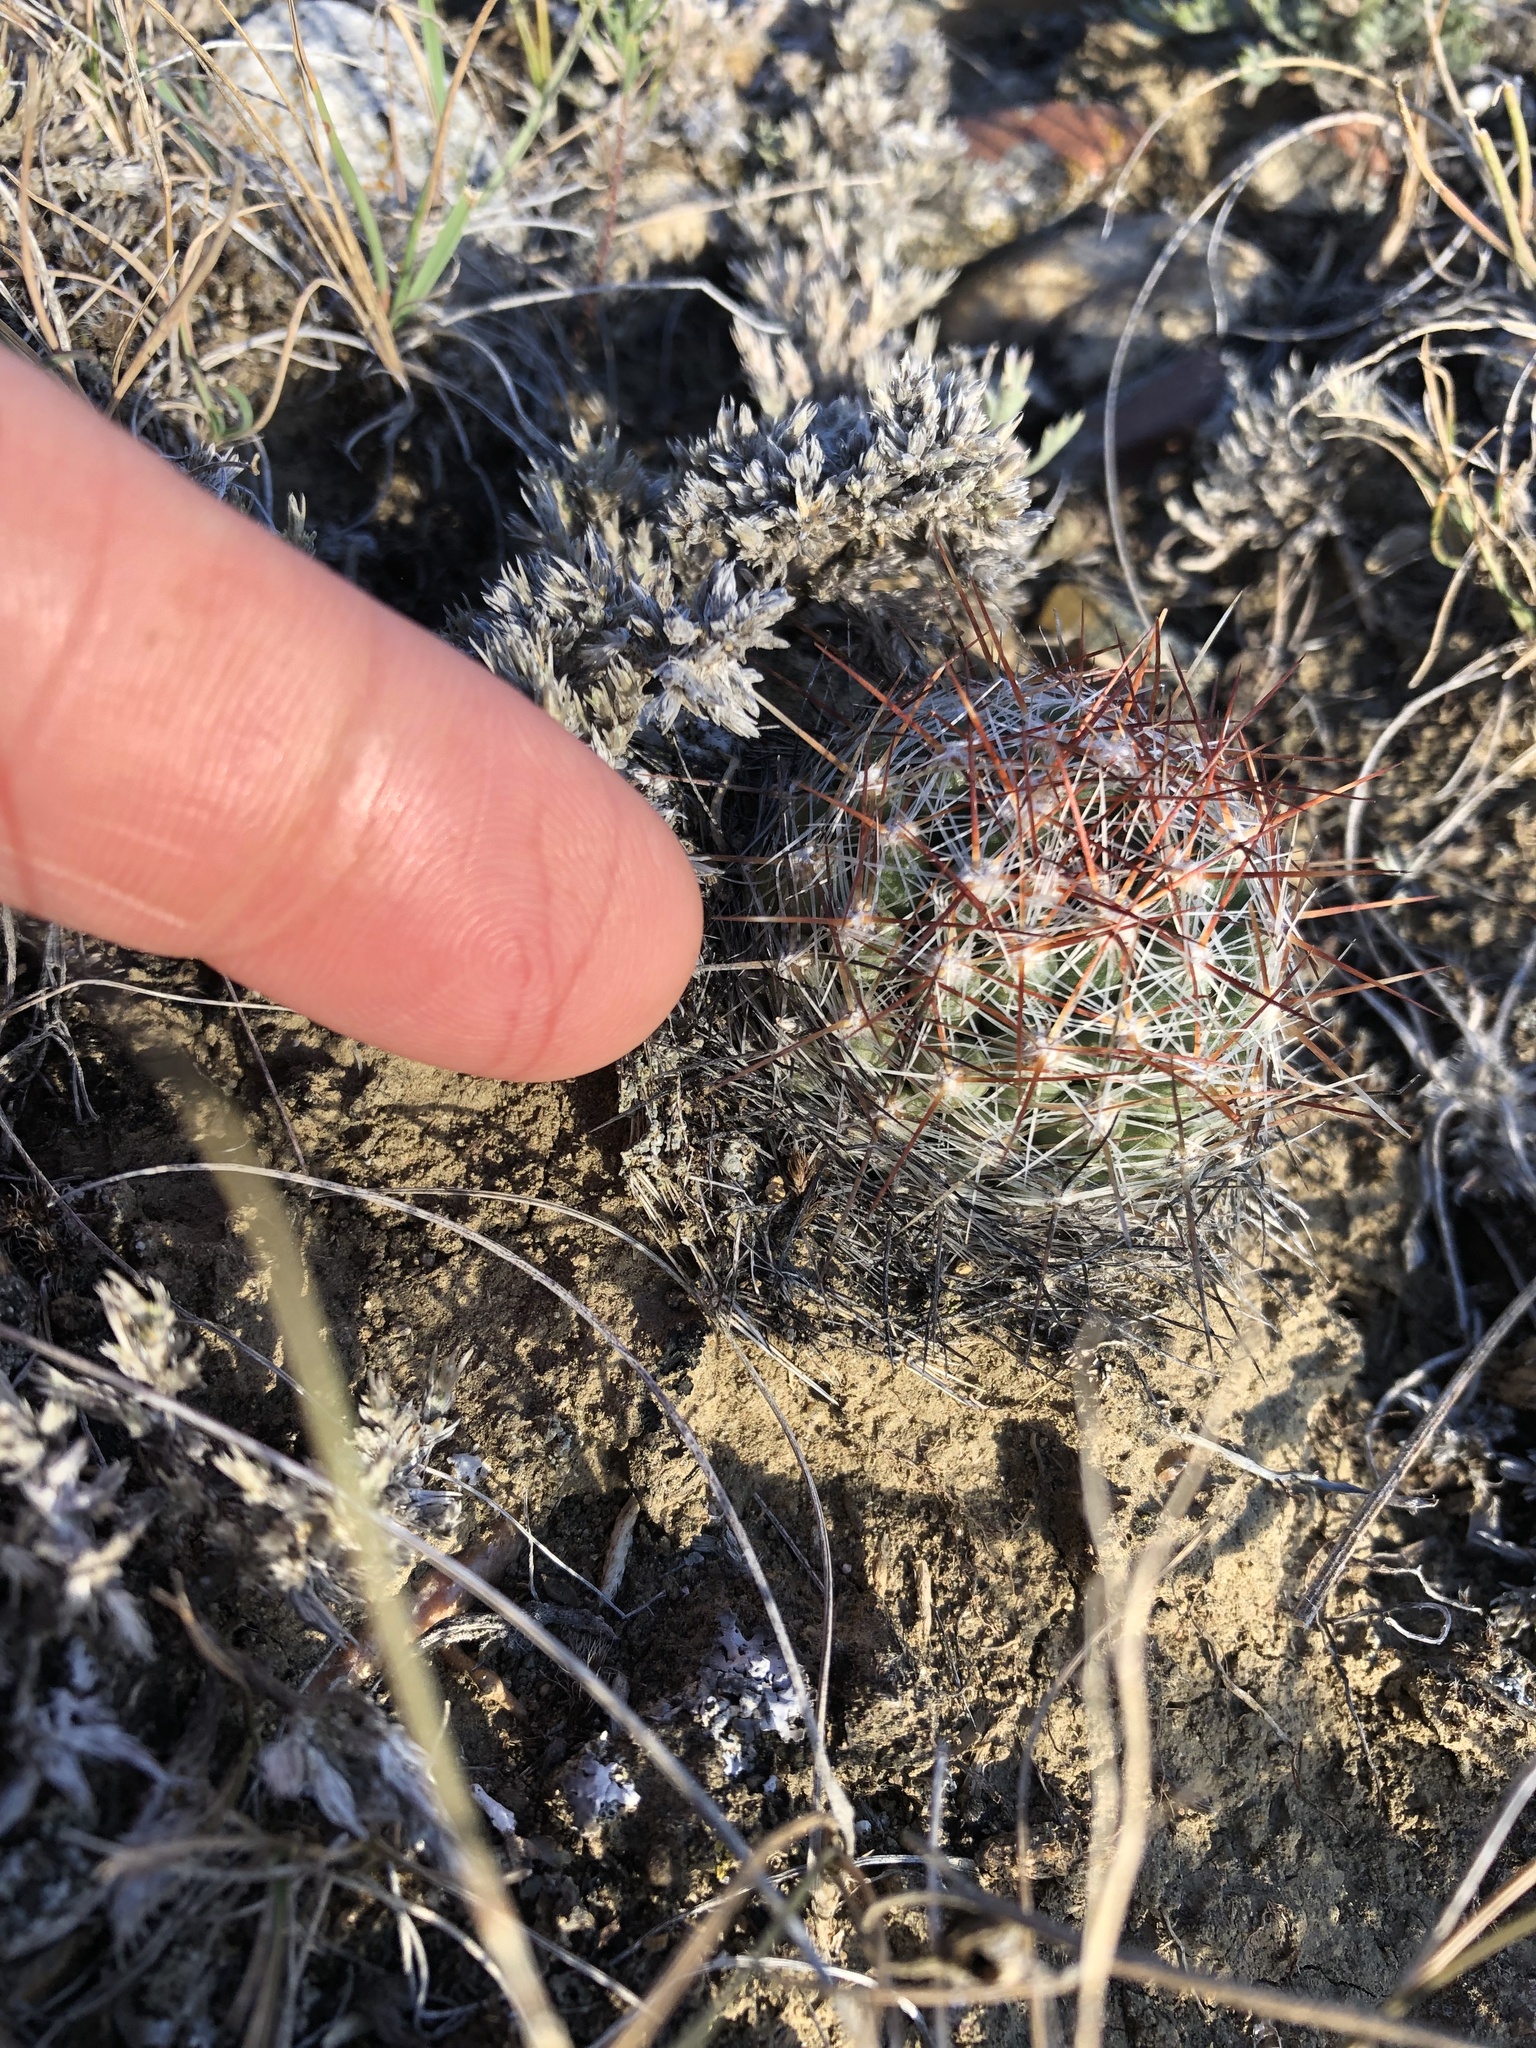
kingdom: Plantae
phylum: Tracheophyta
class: Magnoliopsida
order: Caryophyllales
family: Cactaceae
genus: Pelecyphora
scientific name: Pelecyphora vivipara
